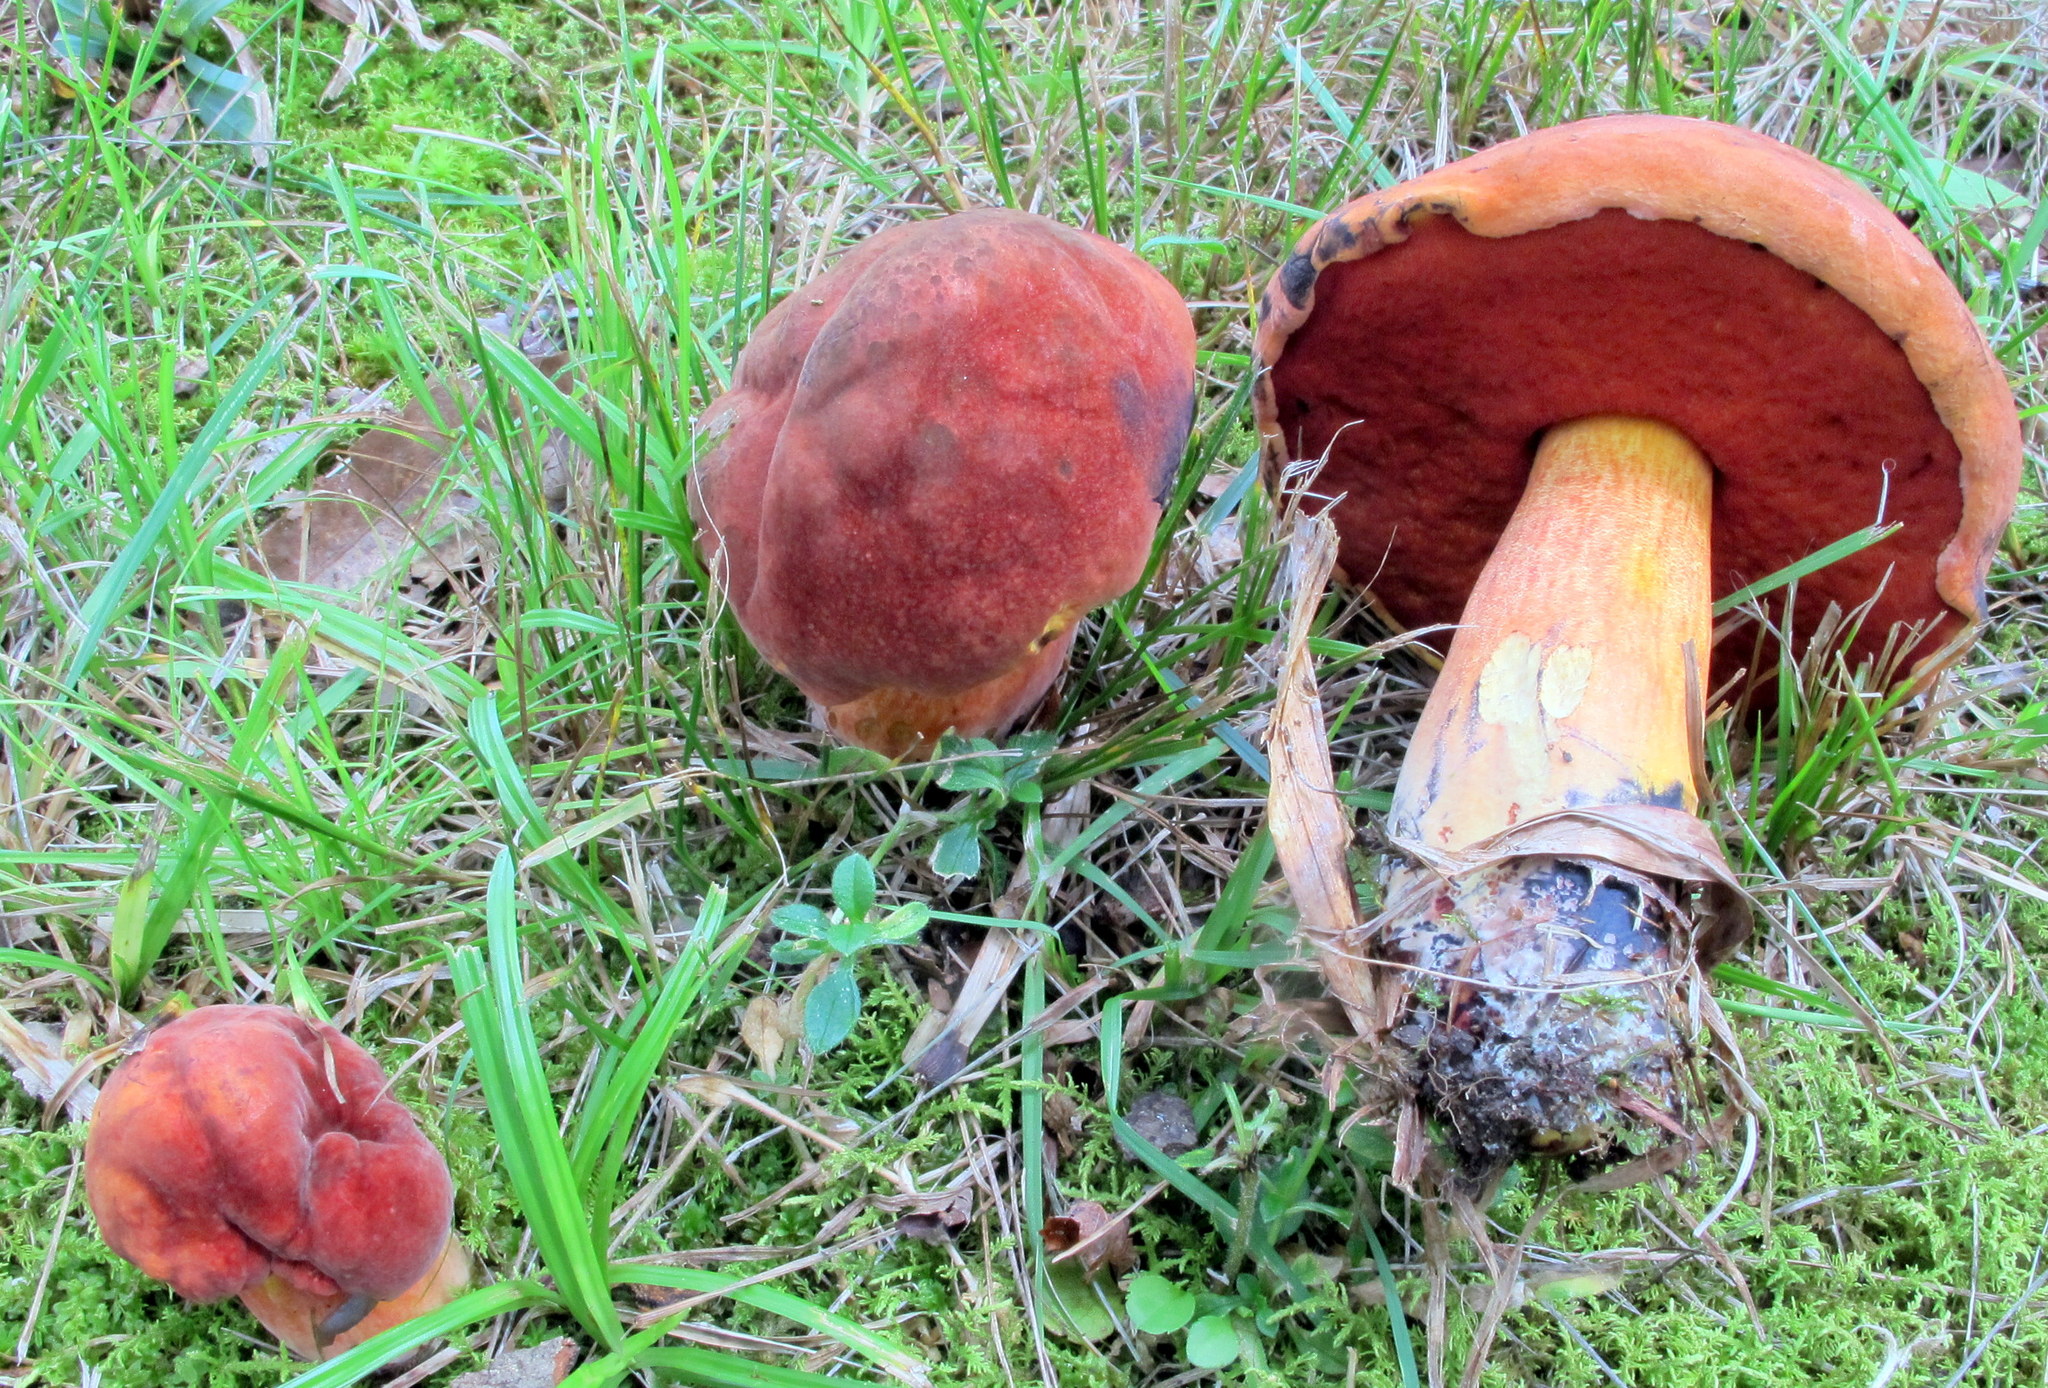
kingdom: Fungi
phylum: Basidiomycota
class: Agaricomycetes
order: Boletales
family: Boletaceae
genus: Boletus
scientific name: Boletus subvelutipes
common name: Red-mouth bolete
